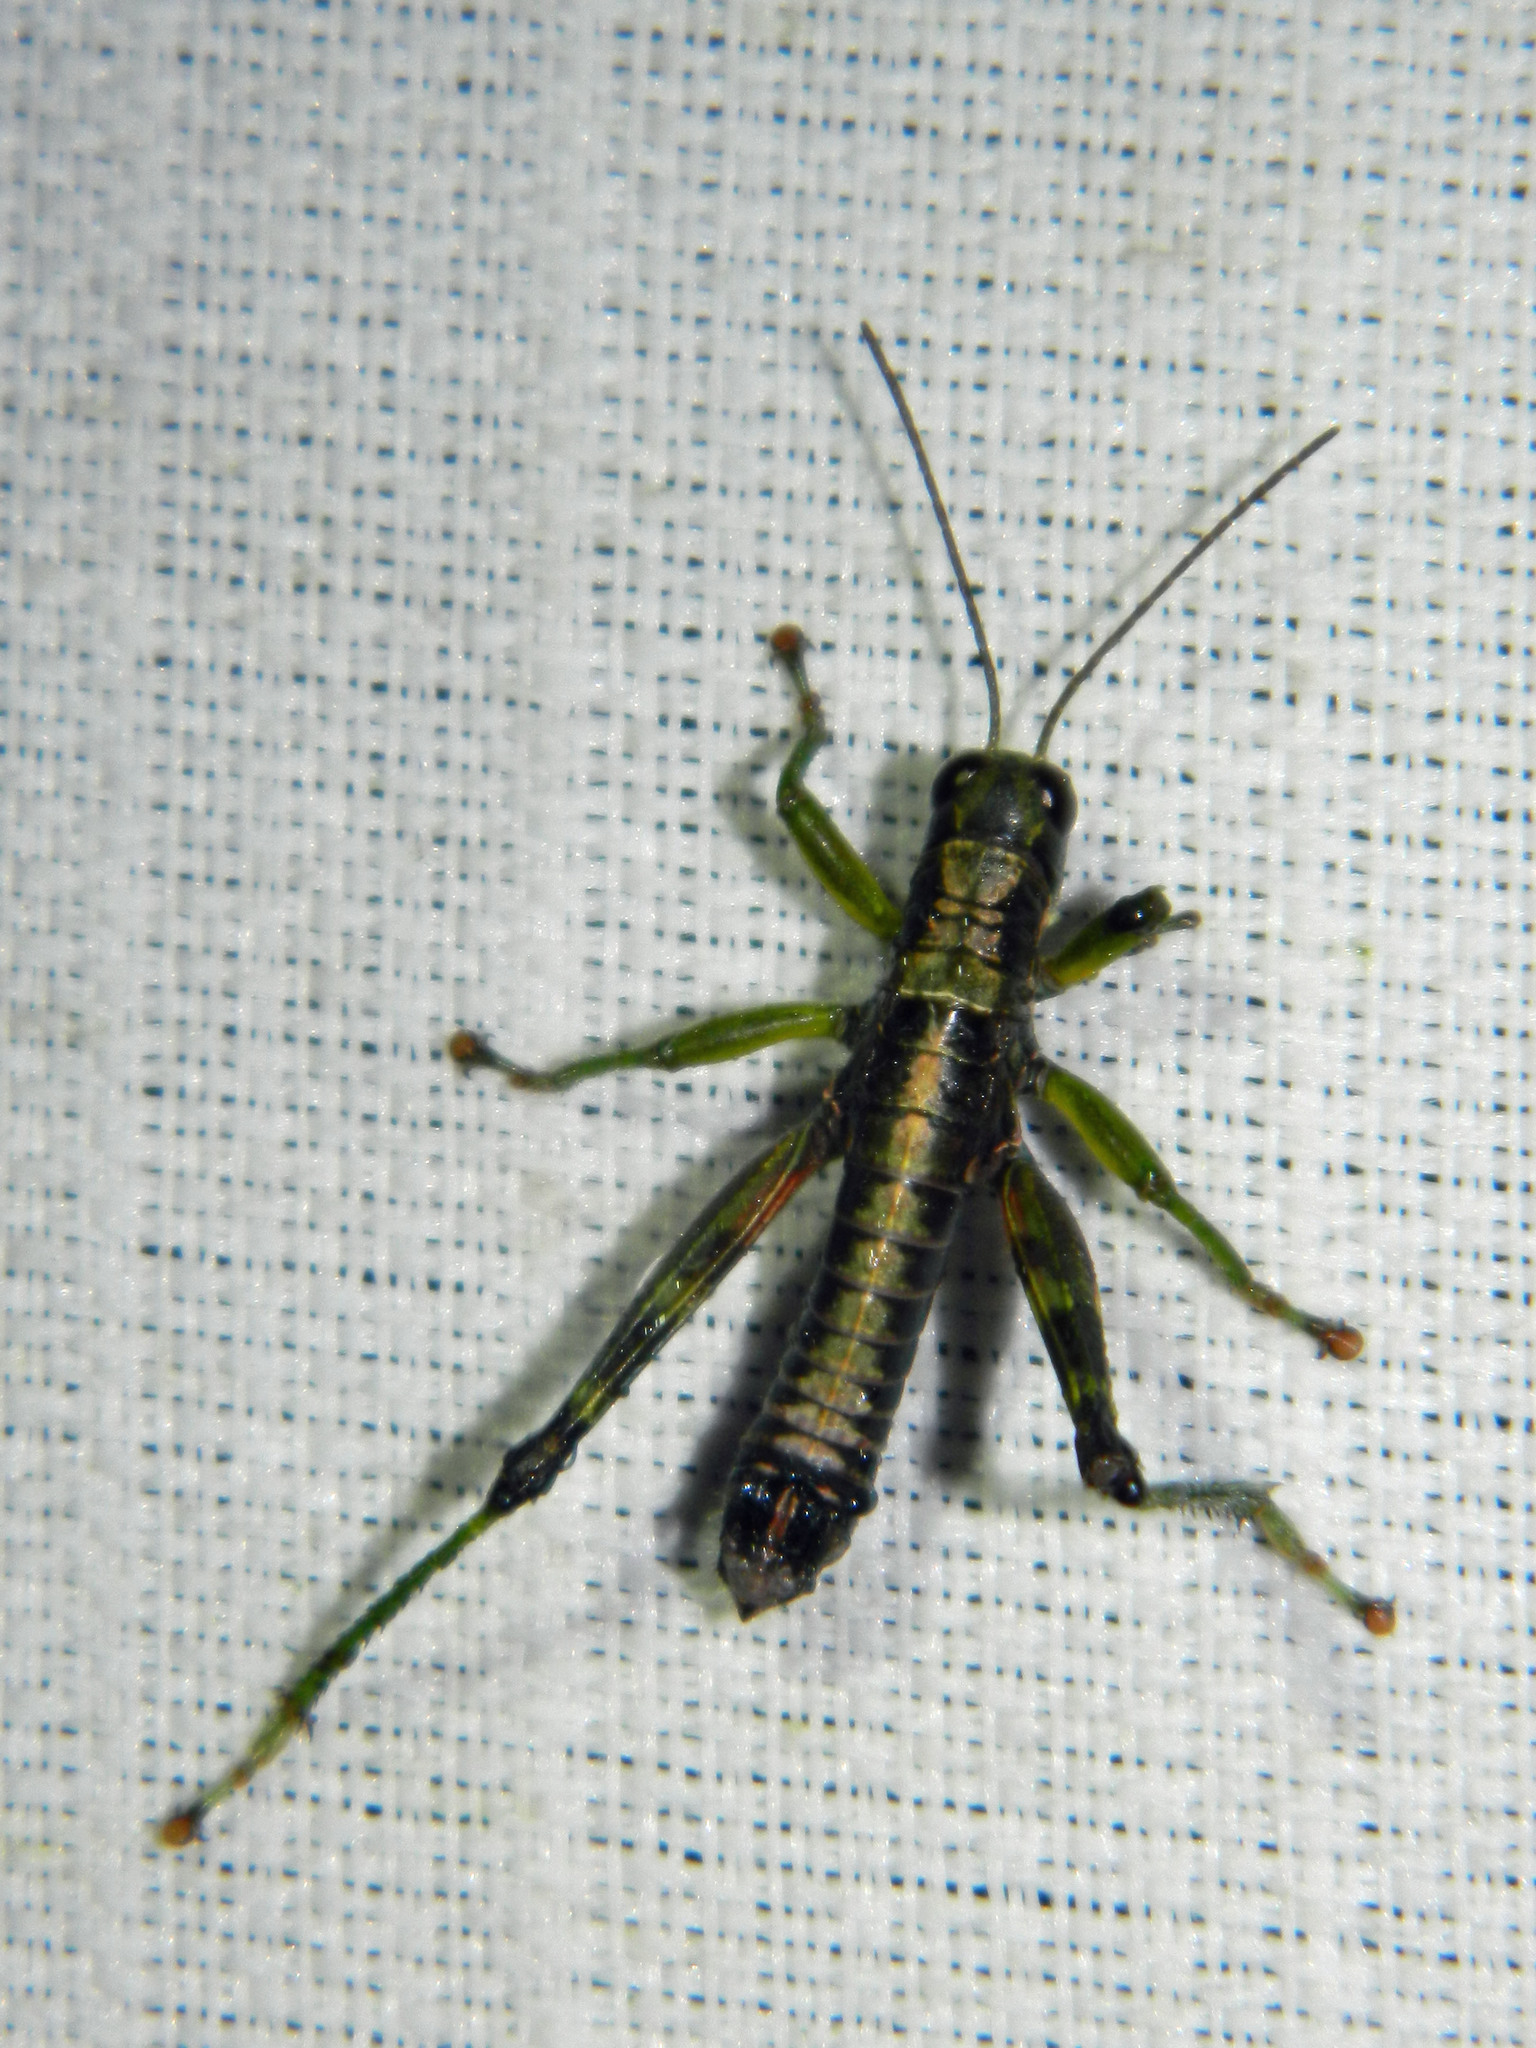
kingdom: Animalia
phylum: Arthropoda
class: Insecta
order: Orthoptera
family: Acrididae
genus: Booneacris
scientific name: Booneacris glacialis
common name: Wingless mountain grasshopper
